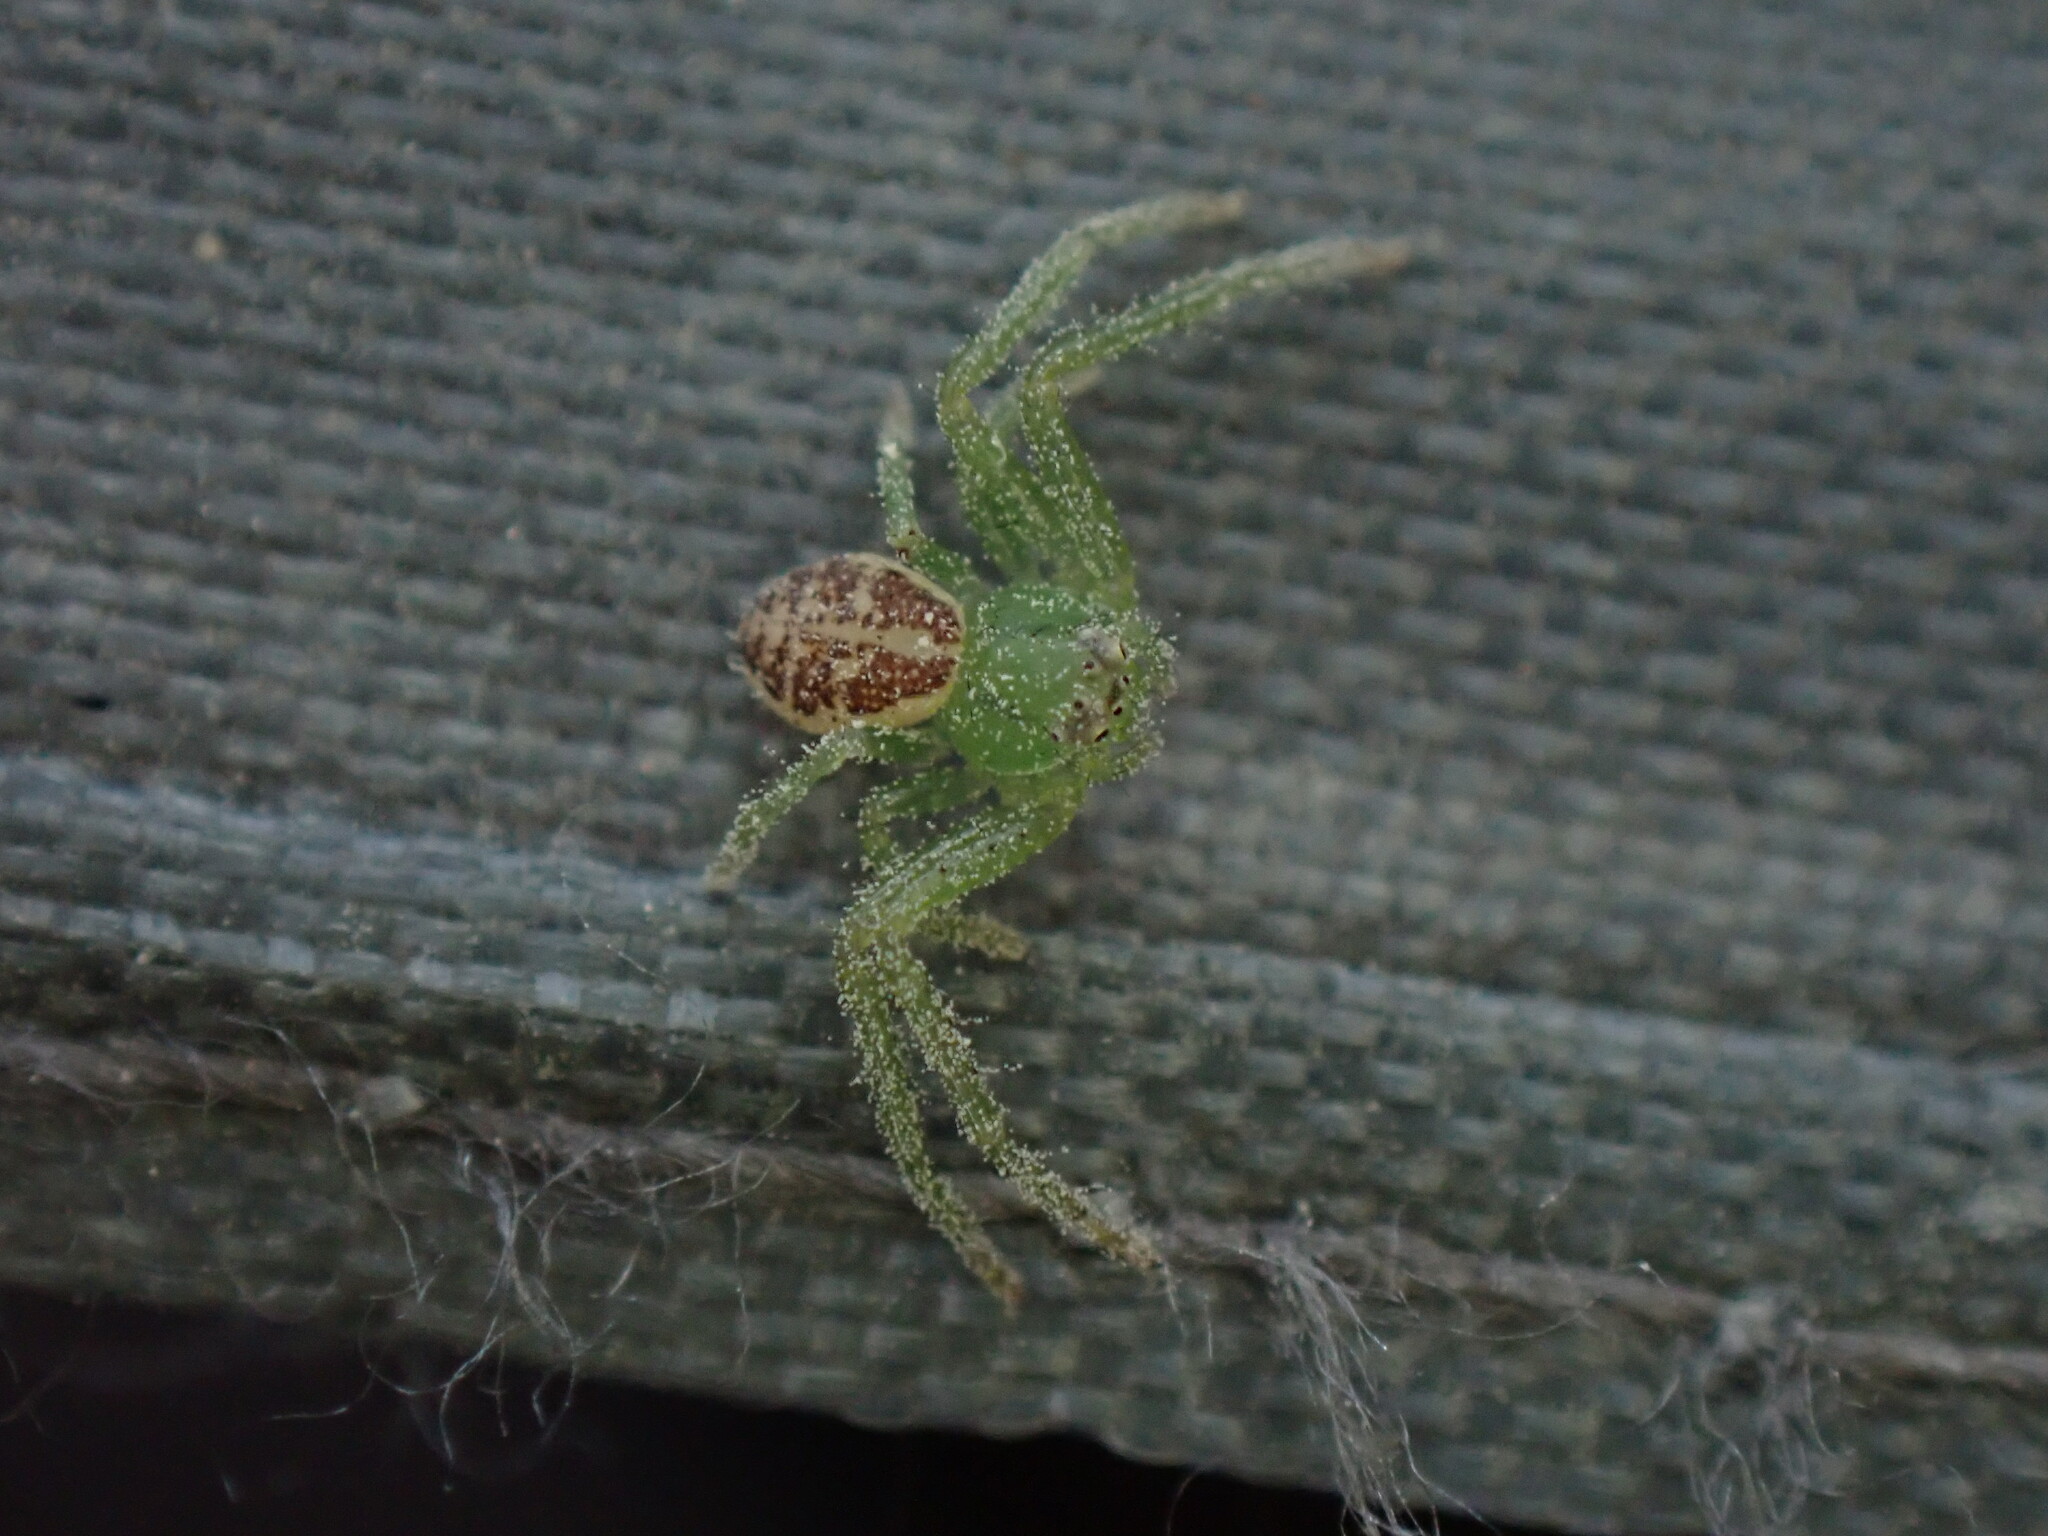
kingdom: Animalia
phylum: Arthropoda
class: Arachnida
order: Araneae
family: Thomisidae
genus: Diaea
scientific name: Diaea dorsata
